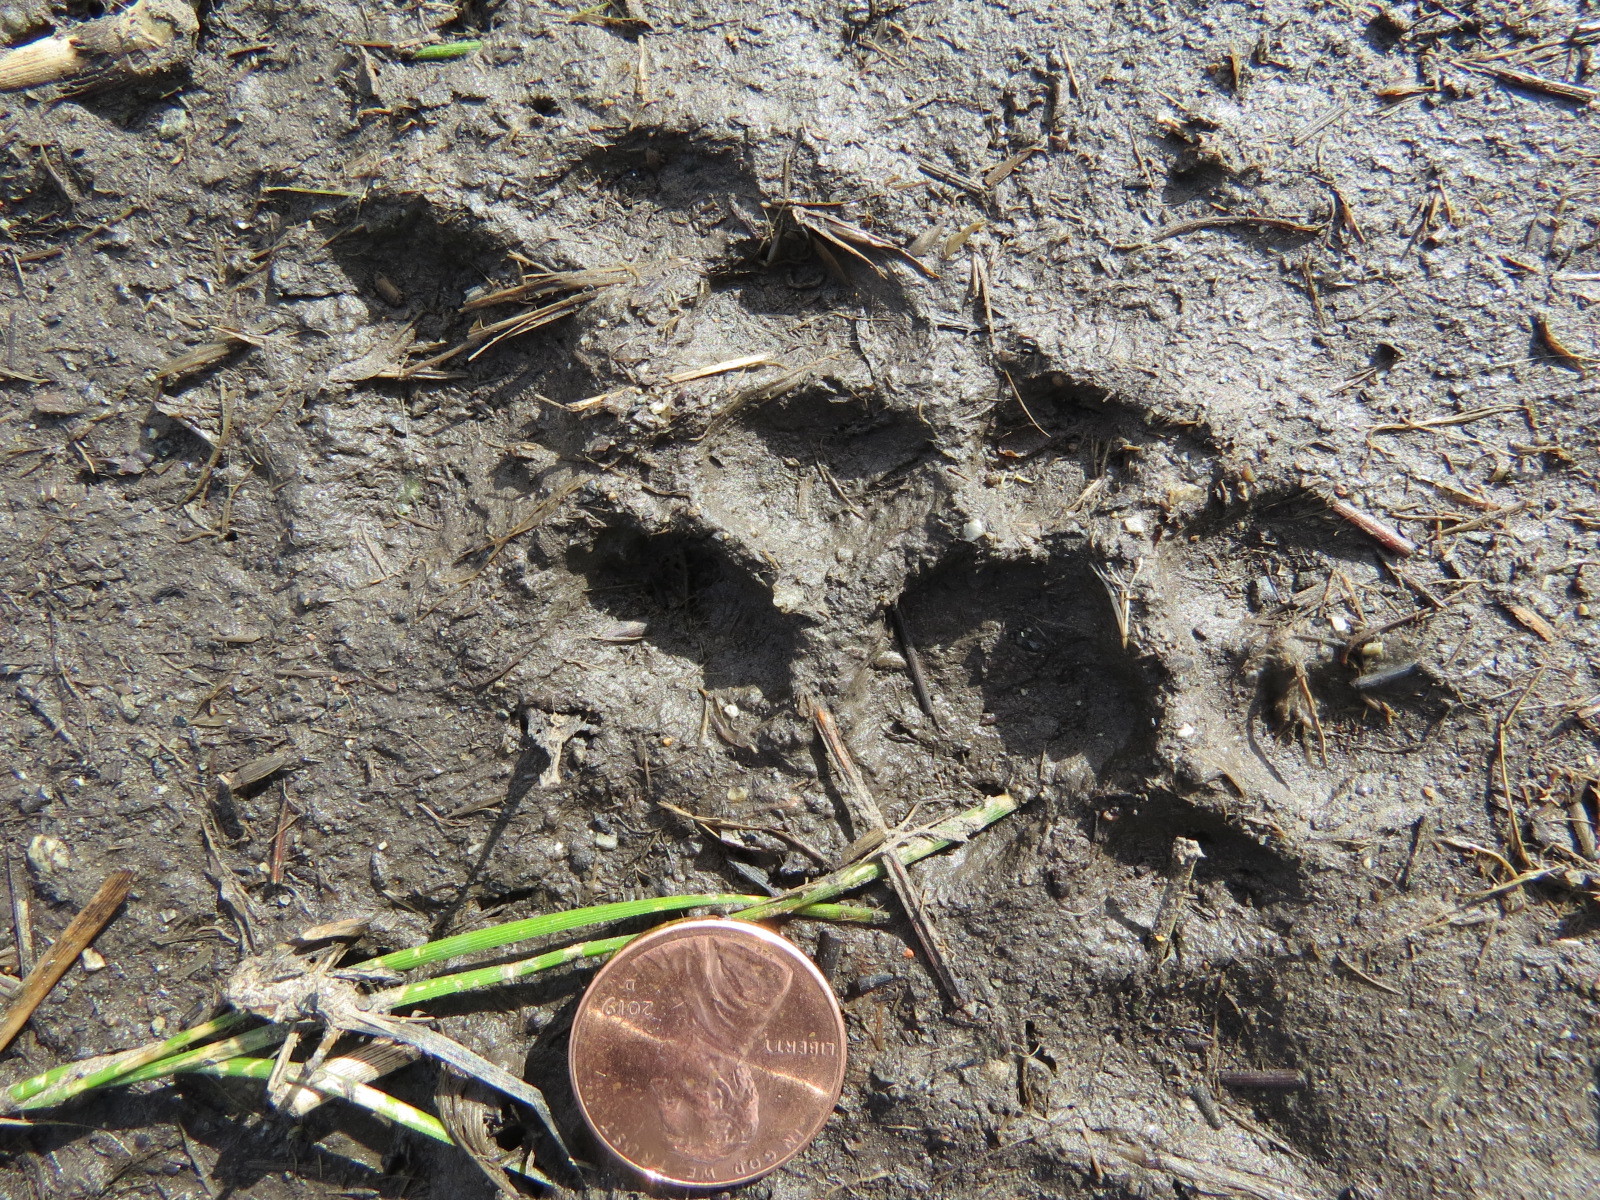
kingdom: Animalia
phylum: Chordata
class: Mammalia
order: Carnivora
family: Felidae
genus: Lynx
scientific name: Lynx rufus
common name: Bobcat
